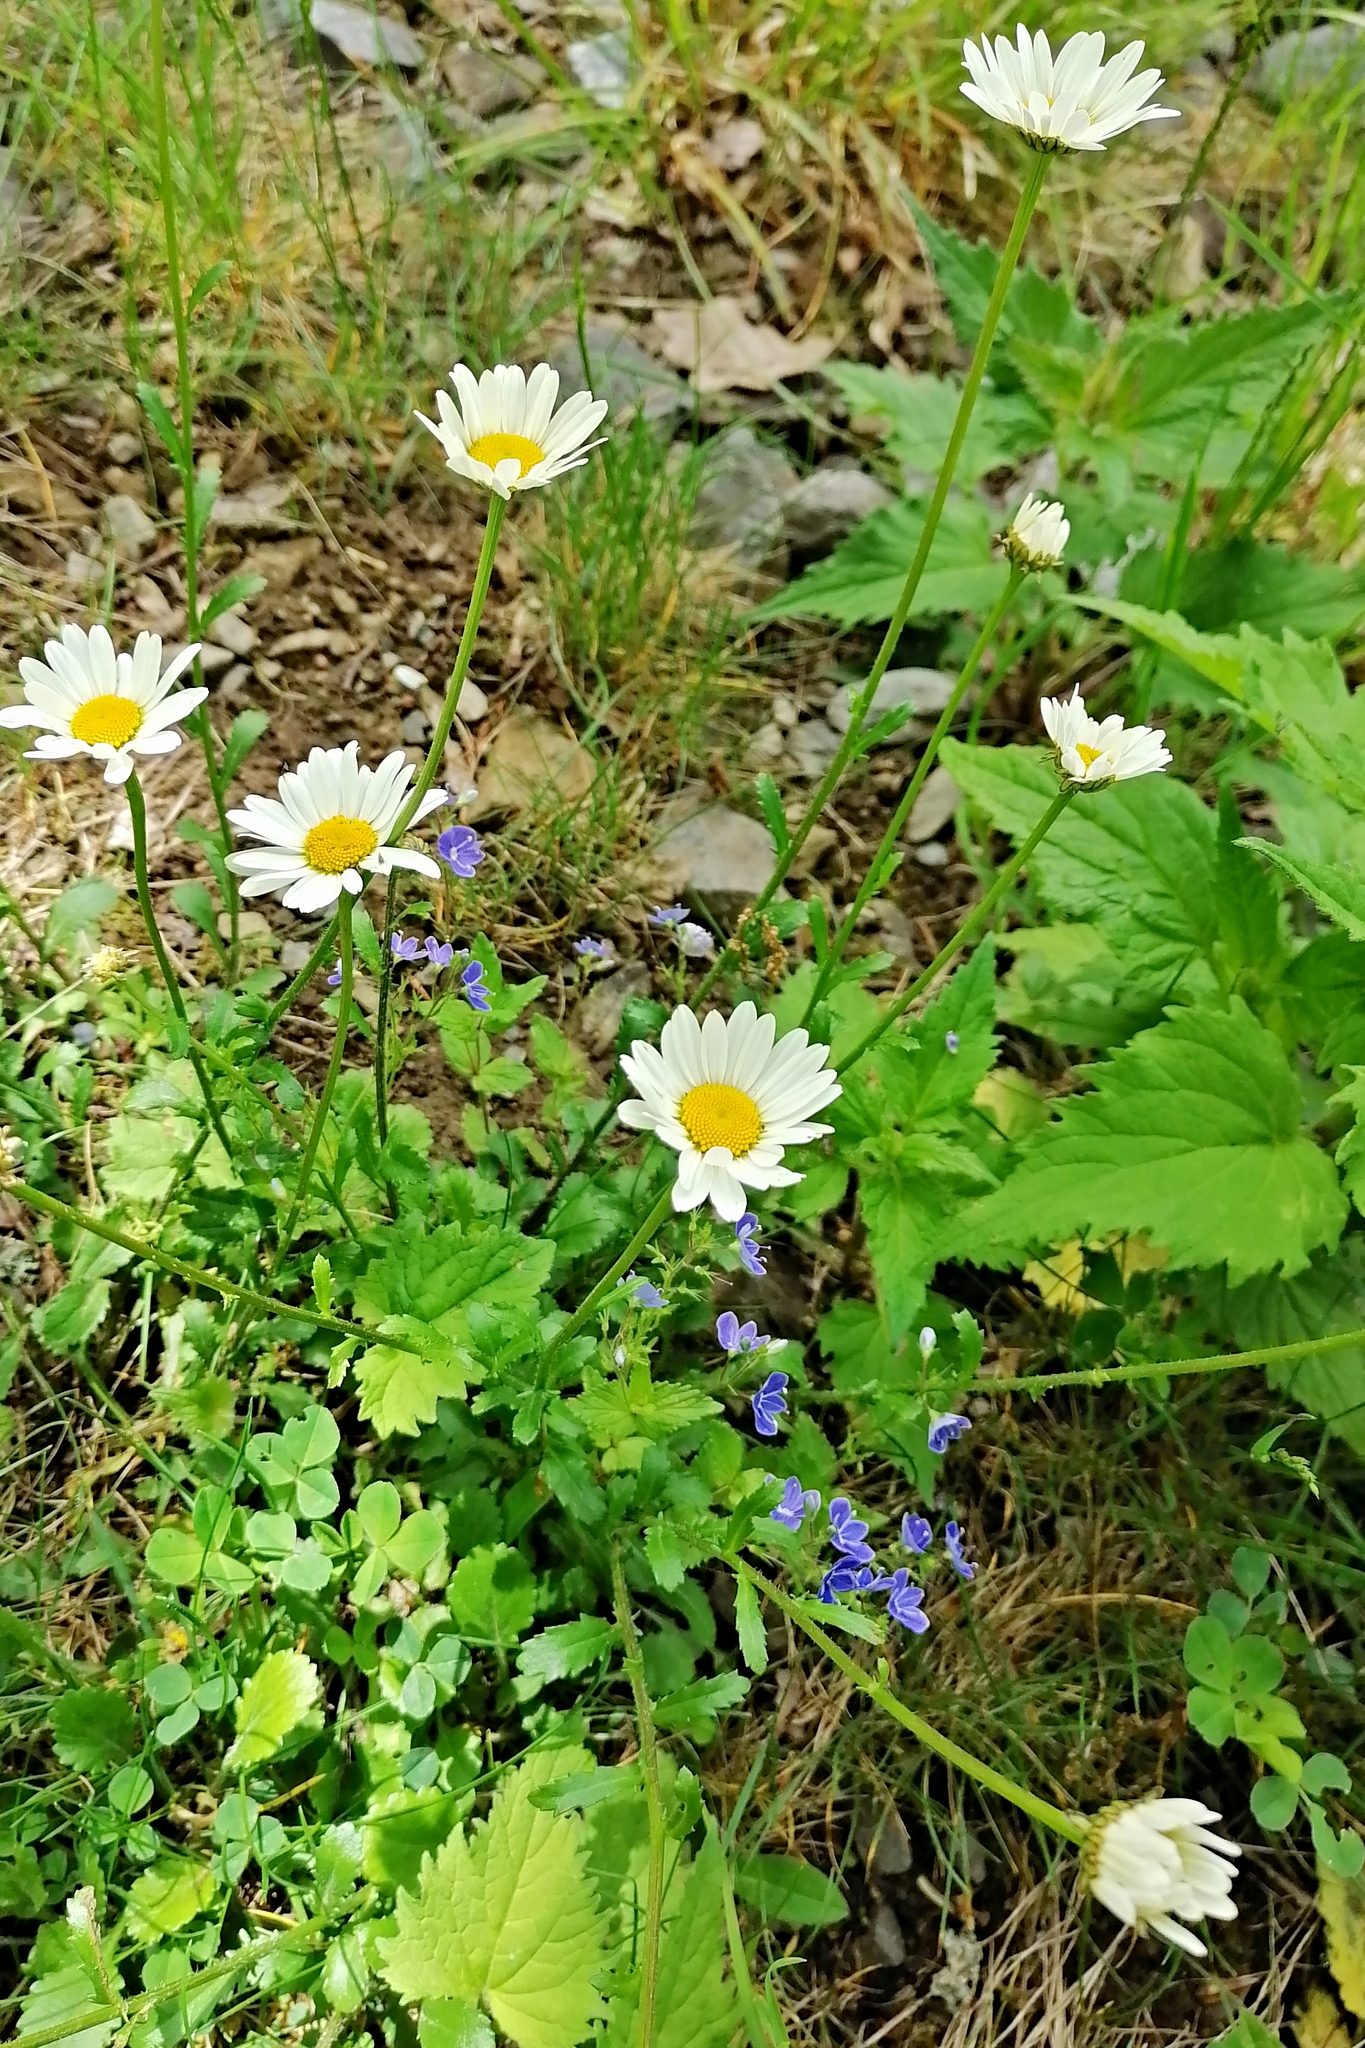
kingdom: Plantae
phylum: Tracheophyta
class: Magnoliopsida
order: Asterales
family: Asteraceae
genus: Leucanthemum
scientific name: Leucanthemum vulgare
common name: Oxeye daisy
